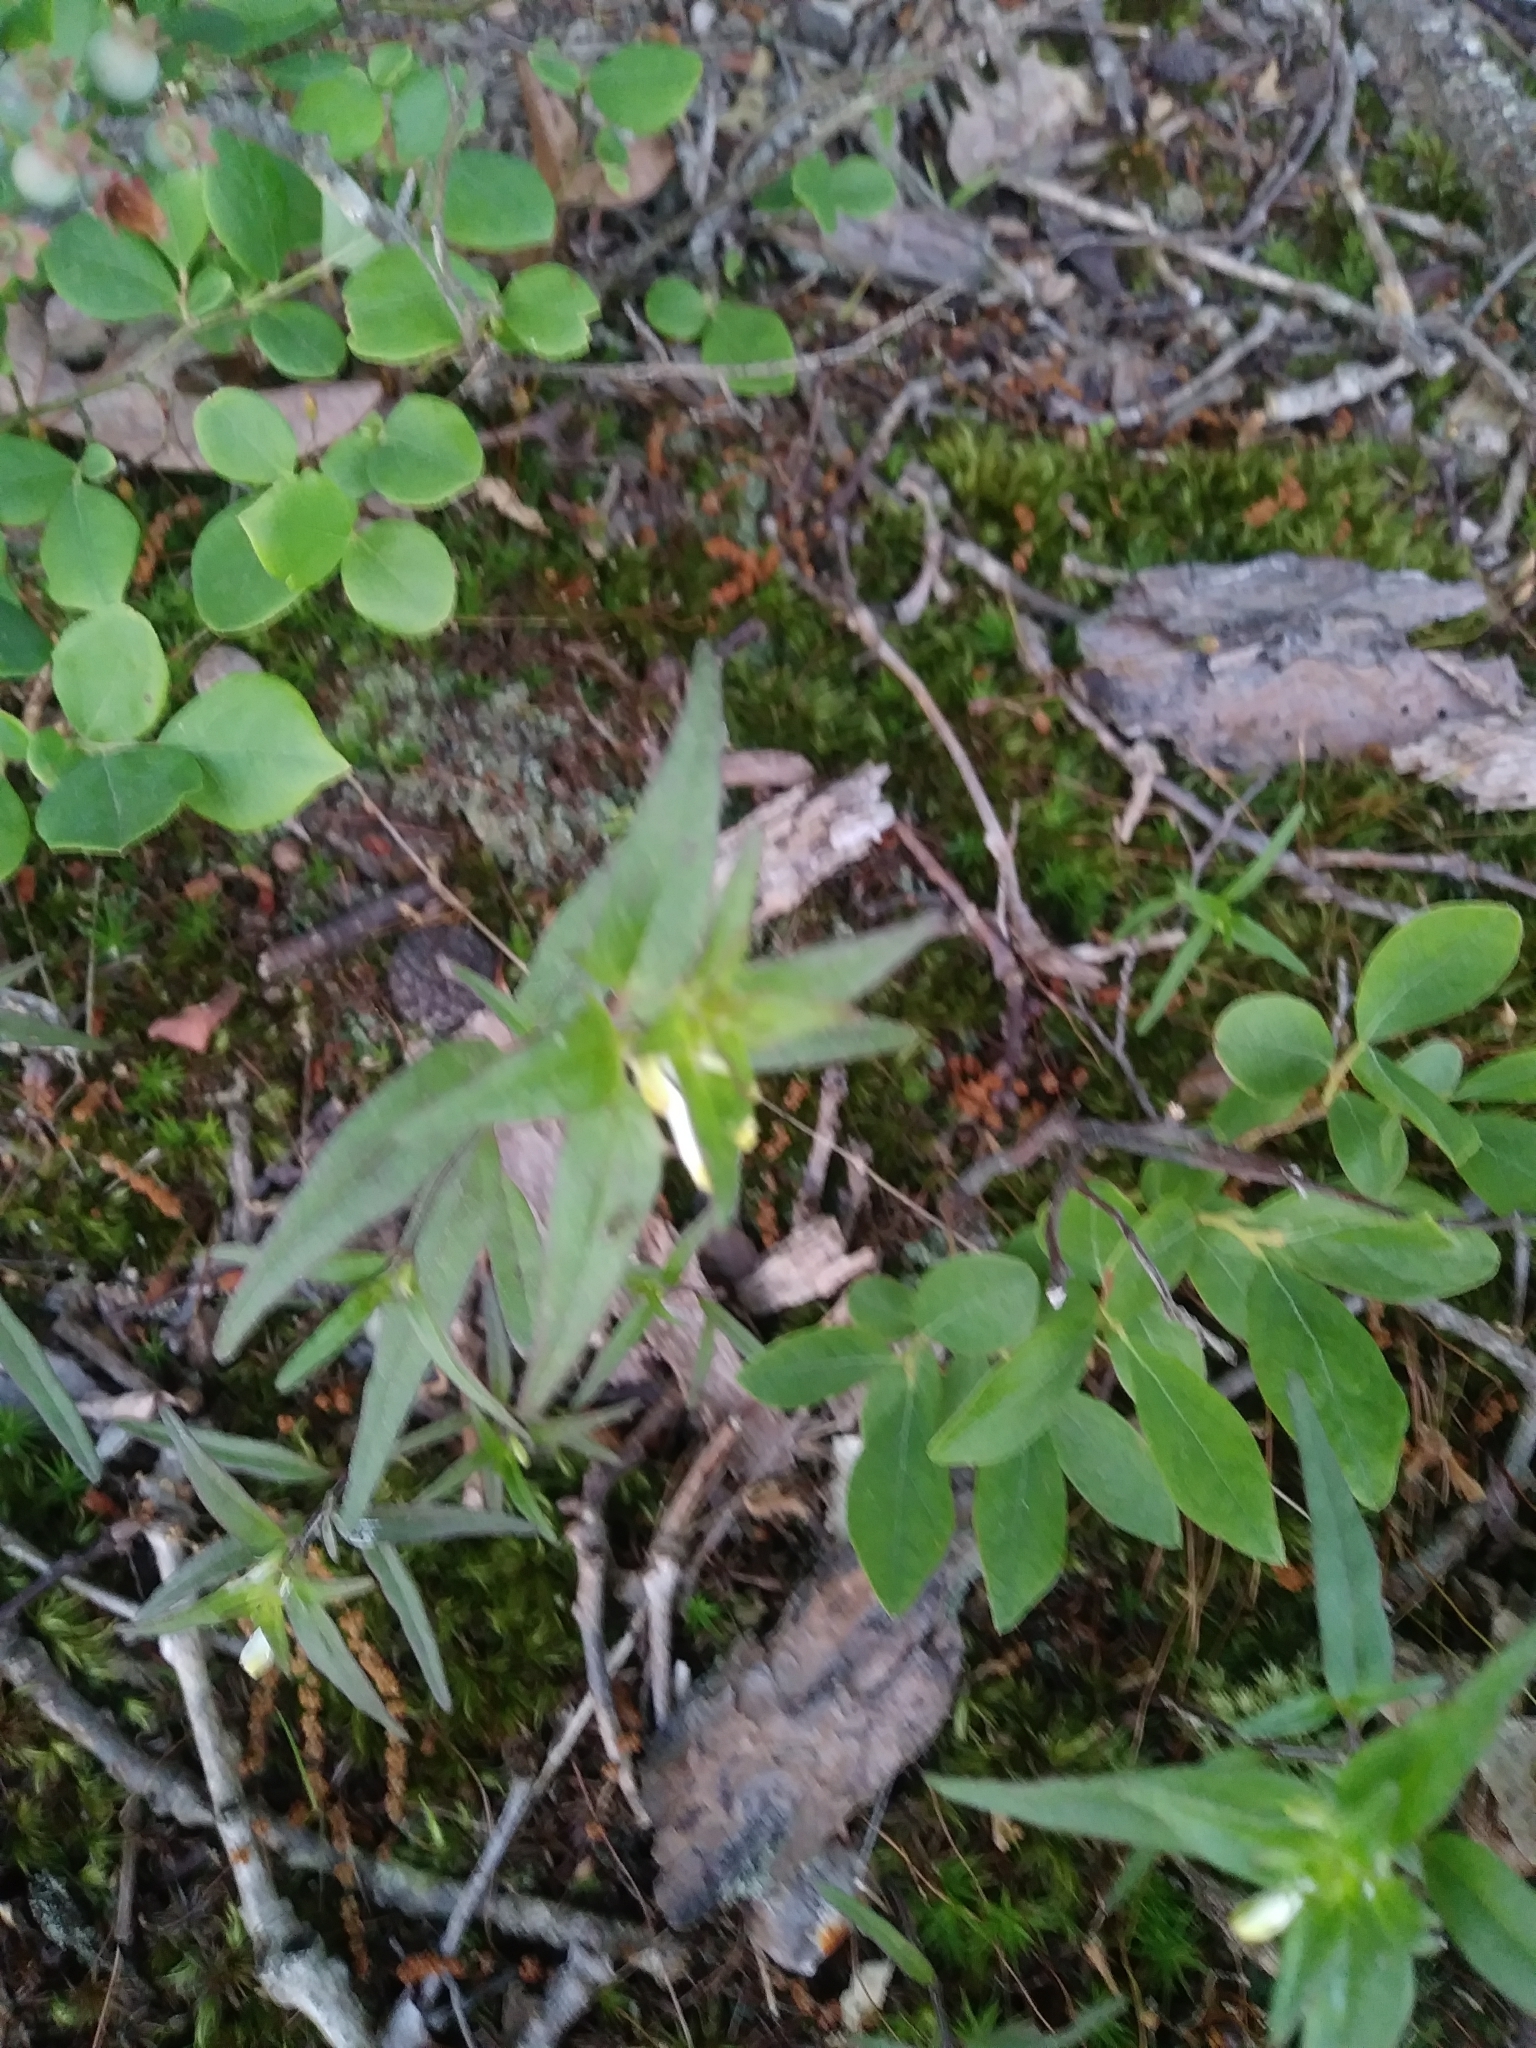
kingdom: Plantae
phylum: Tracheophyta
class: Magnoliopsida
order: Lamiales
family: Orobanchaceae
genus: Melampyrum
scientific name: Melampyrum lineare
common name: American cow-wheat
